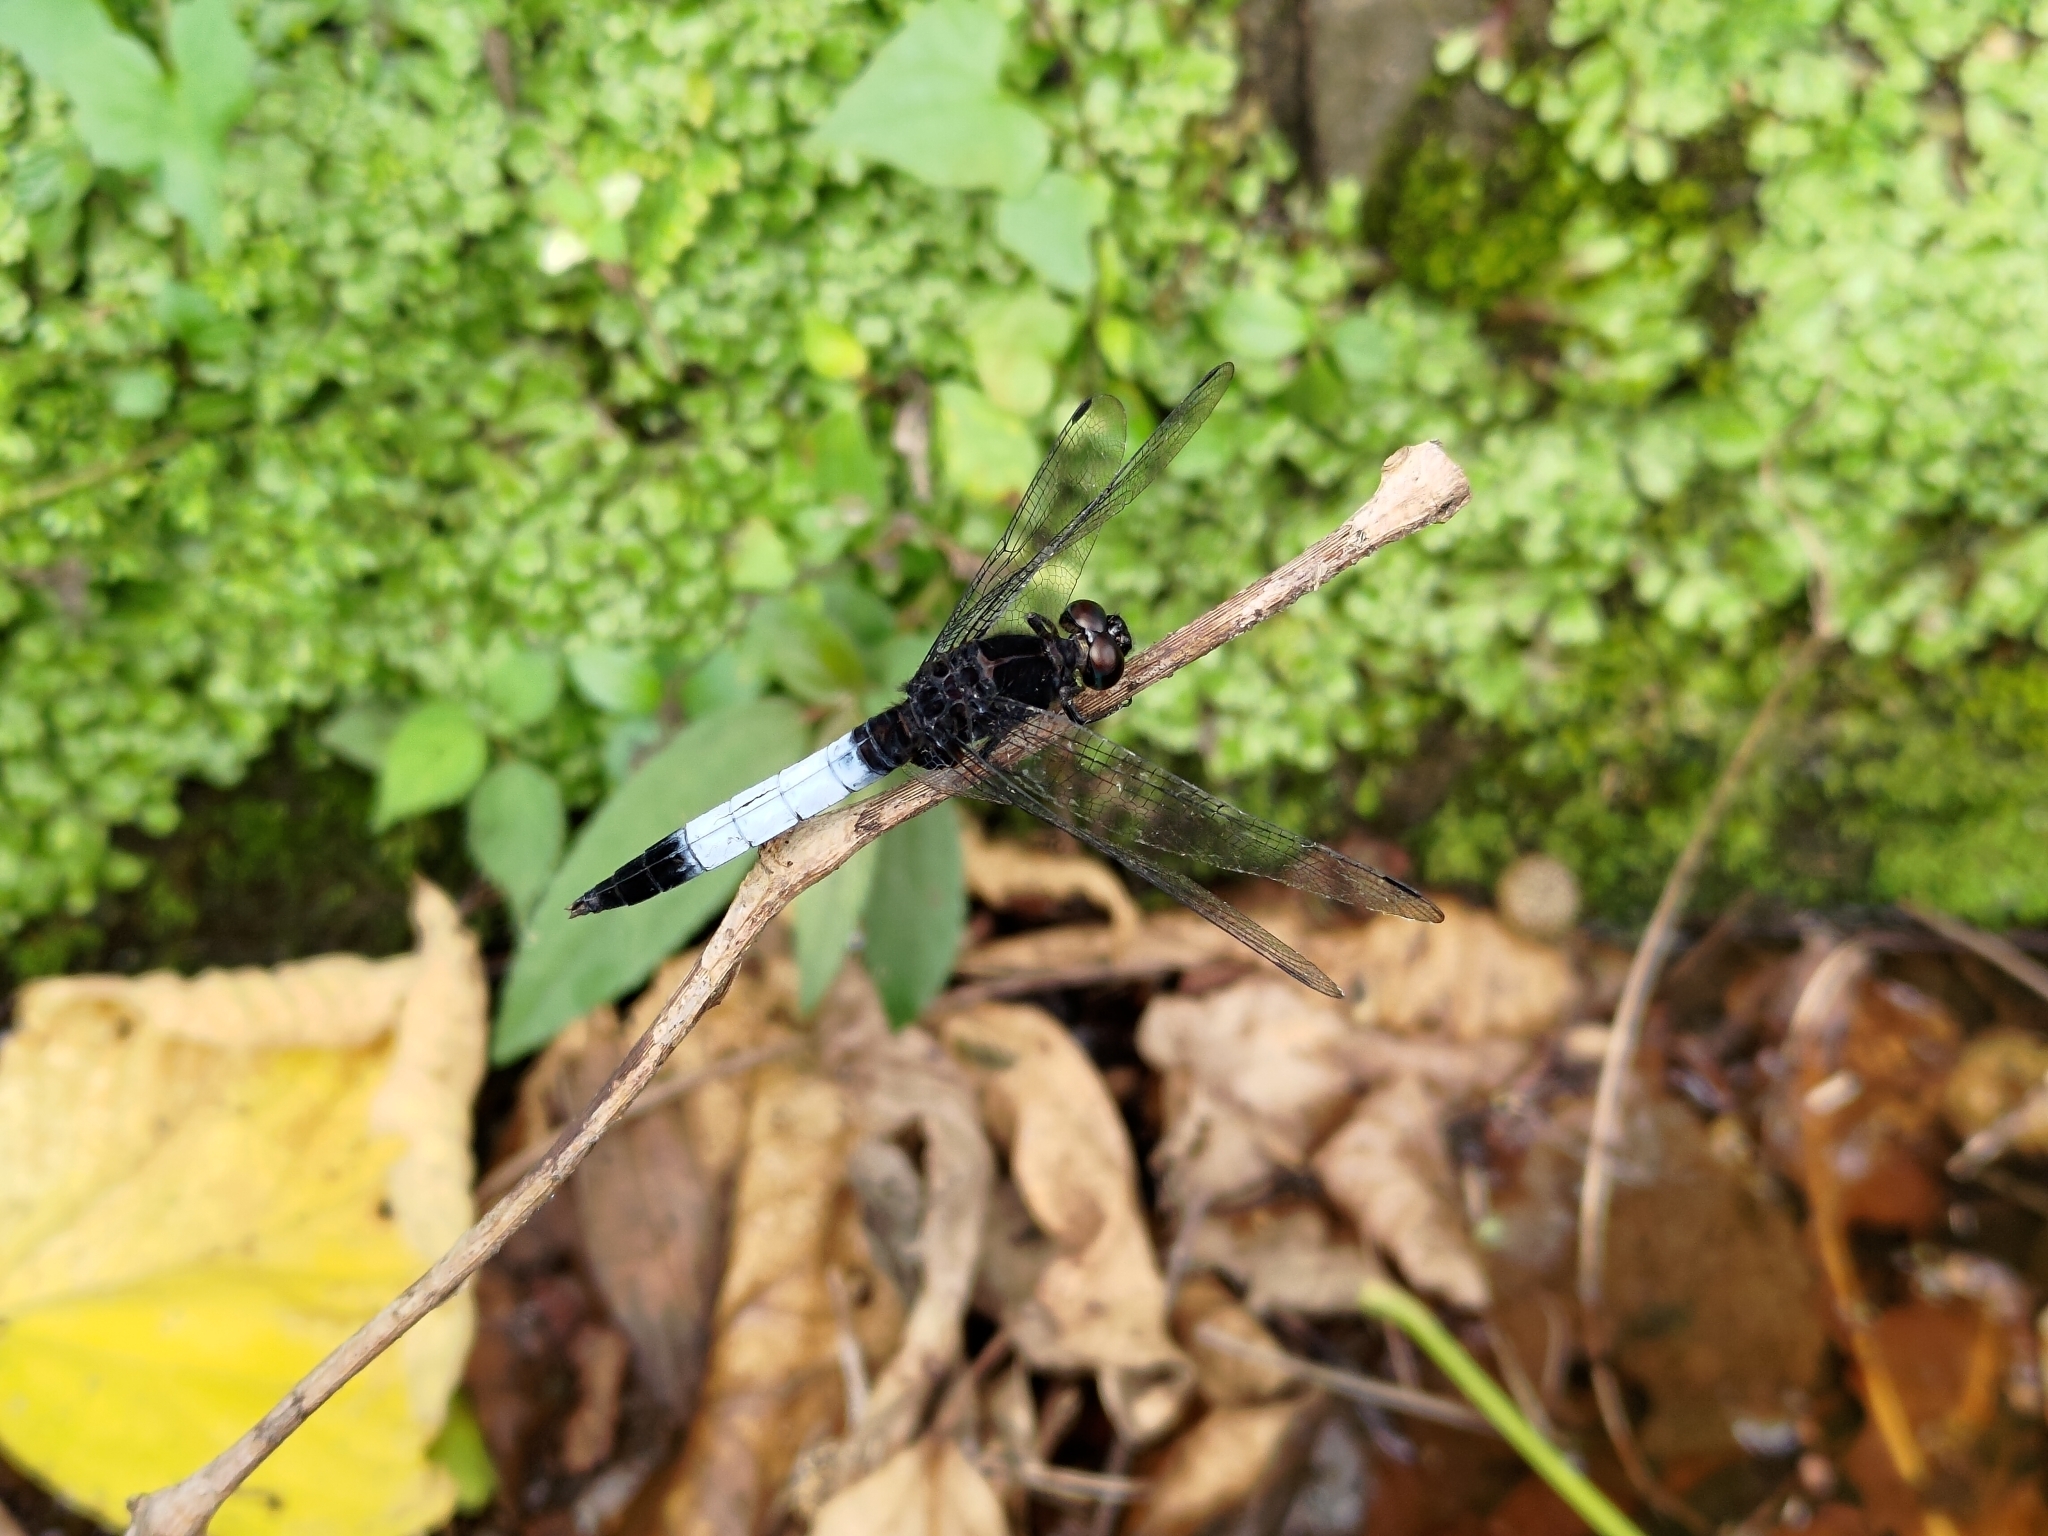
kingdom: Animalia
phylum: Arthropoda
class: Insecta
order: Odonata
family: Libellulidae
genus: Orthetrum
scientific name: Orthetrum triangulare
